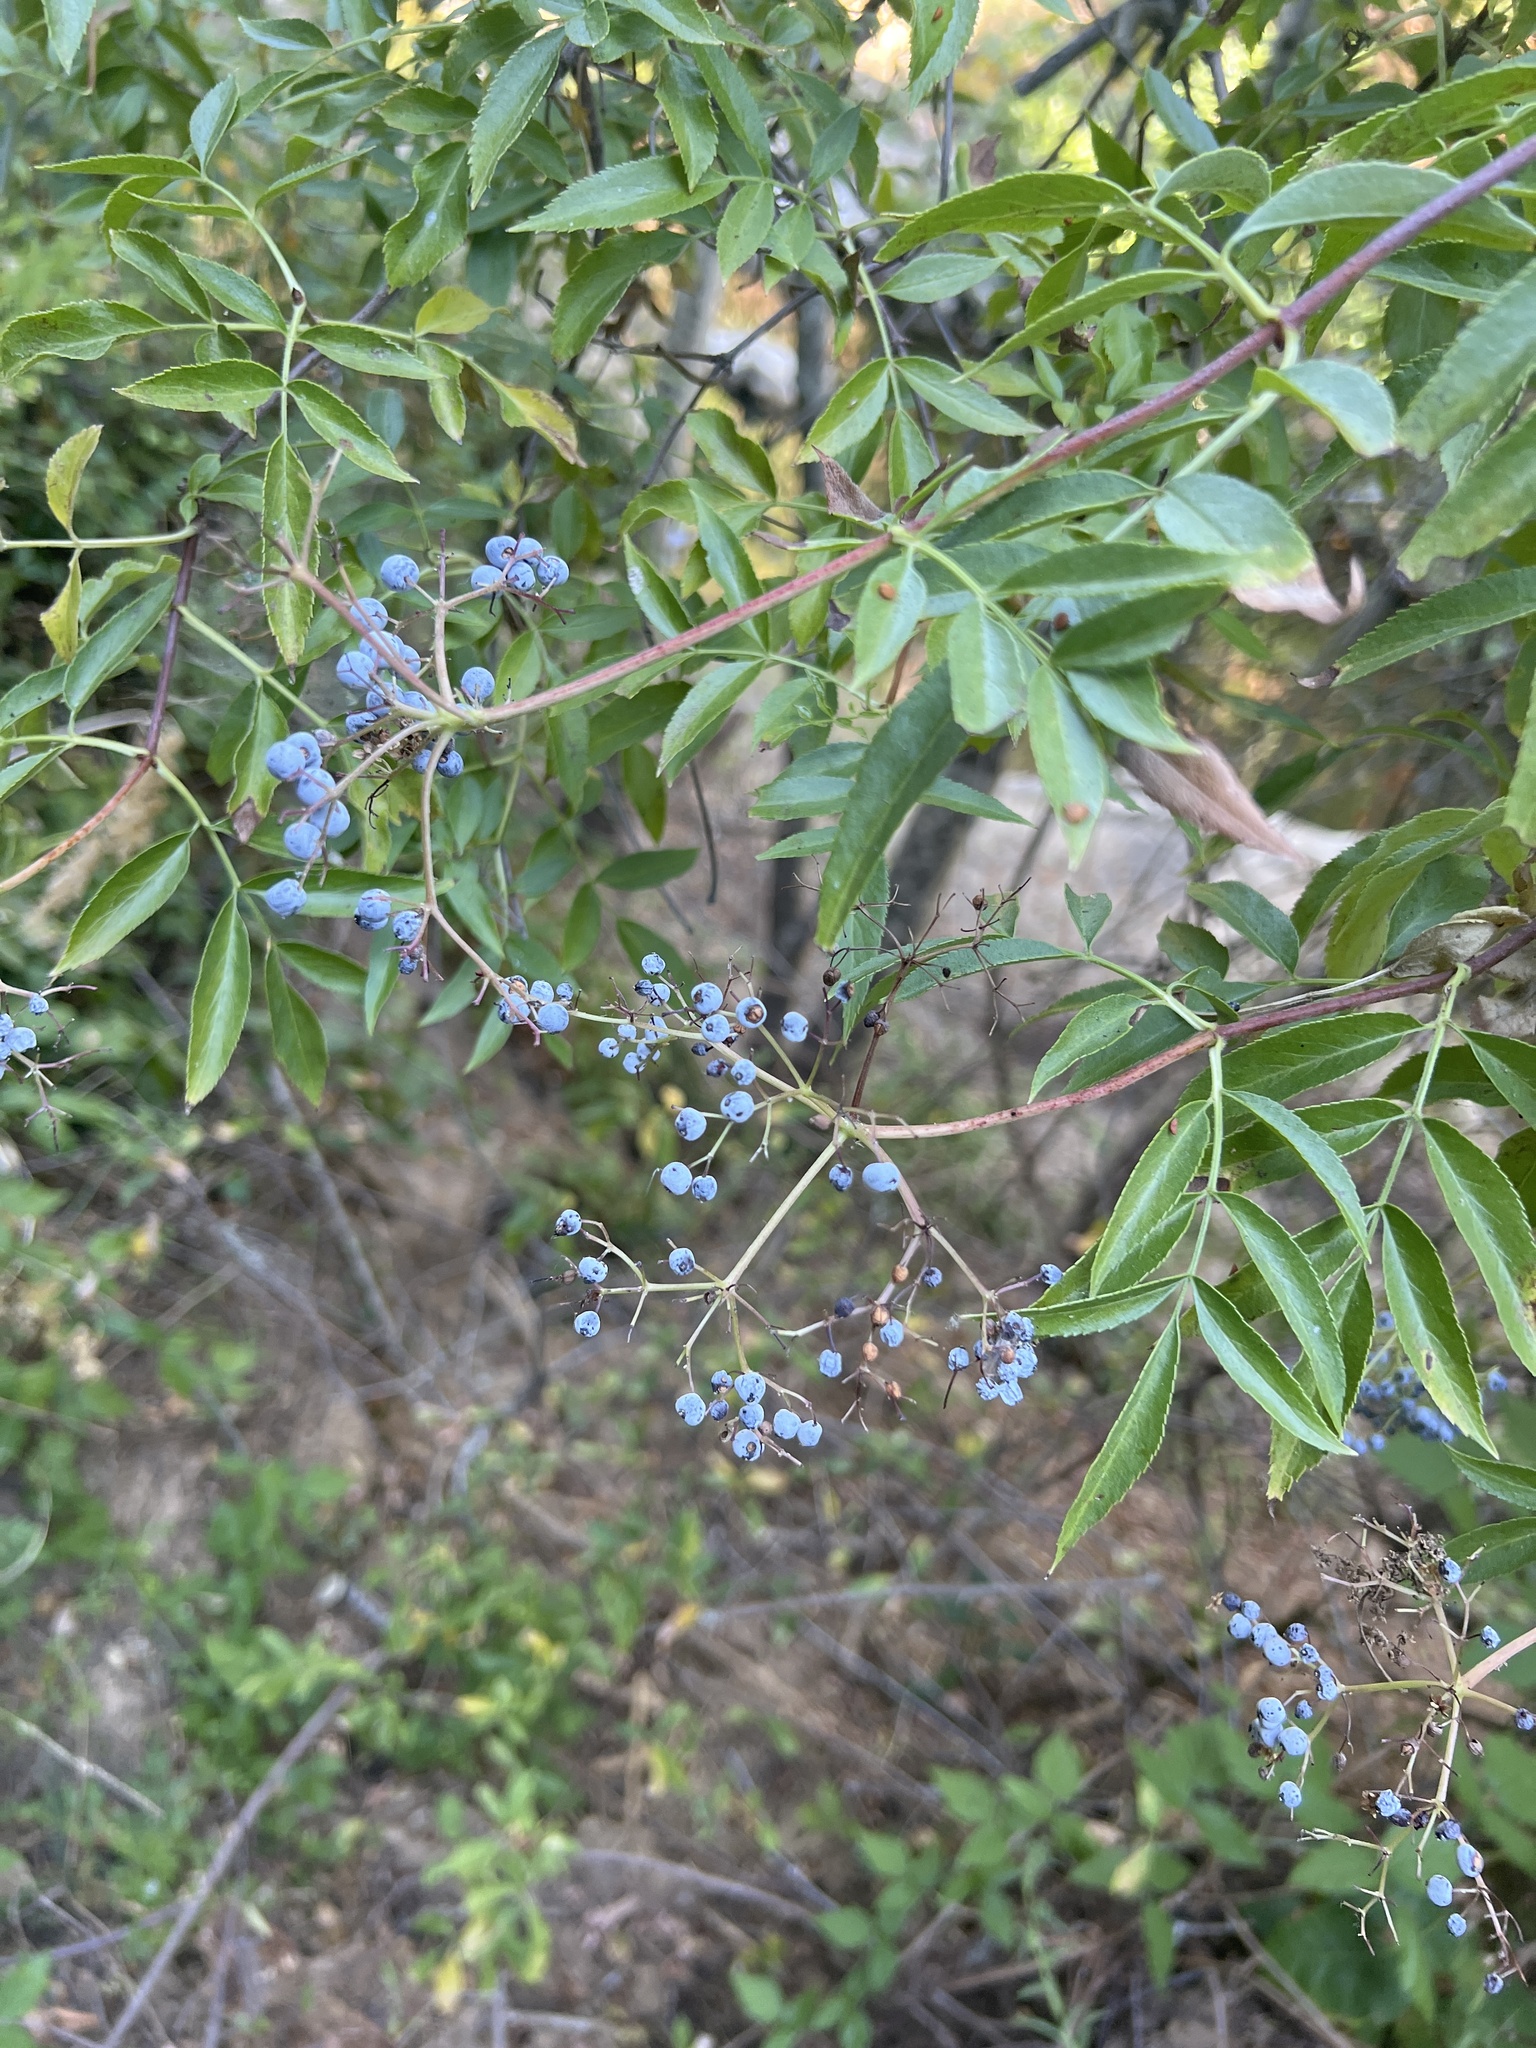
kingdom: Plantae
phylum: Tracheophyta
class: Magnoliopsida
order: Dipsacales
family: Viburnaceae
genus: Sambucus
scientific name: Sambucus cerulea
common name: Blue elder
